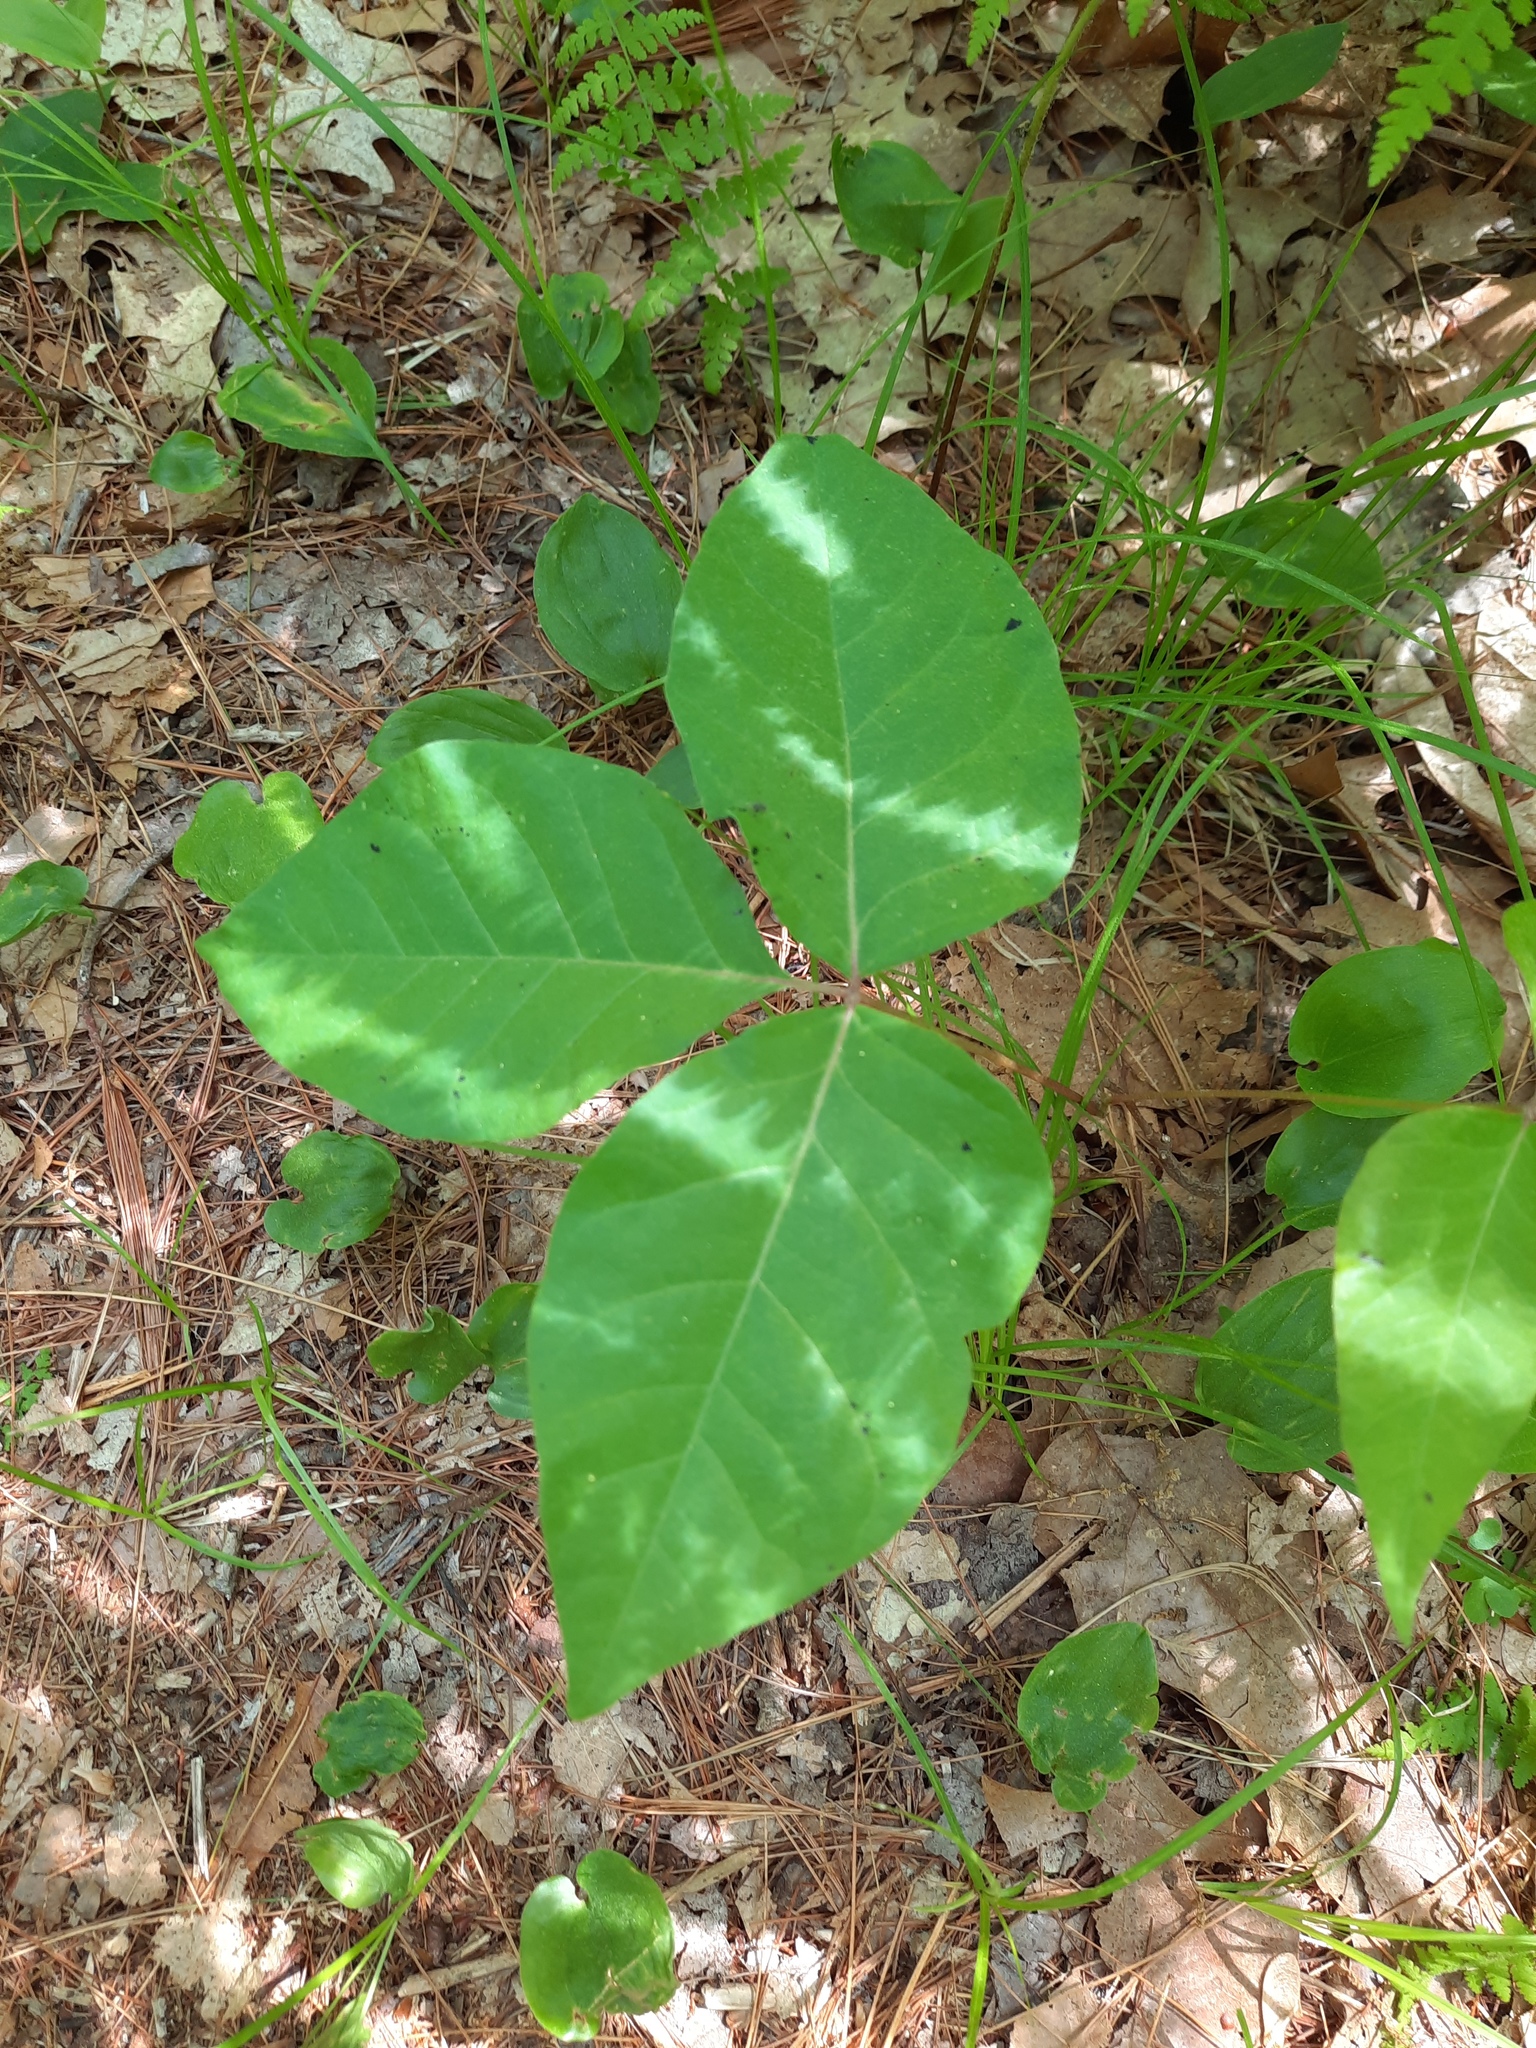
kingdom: Plantae
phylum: Tracheophyta
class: Magnoliopsida
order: Sapindales
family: Anacardiaceae
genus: Toxicodendron
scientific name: Toxicodendron radicans
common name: Poison ivy
